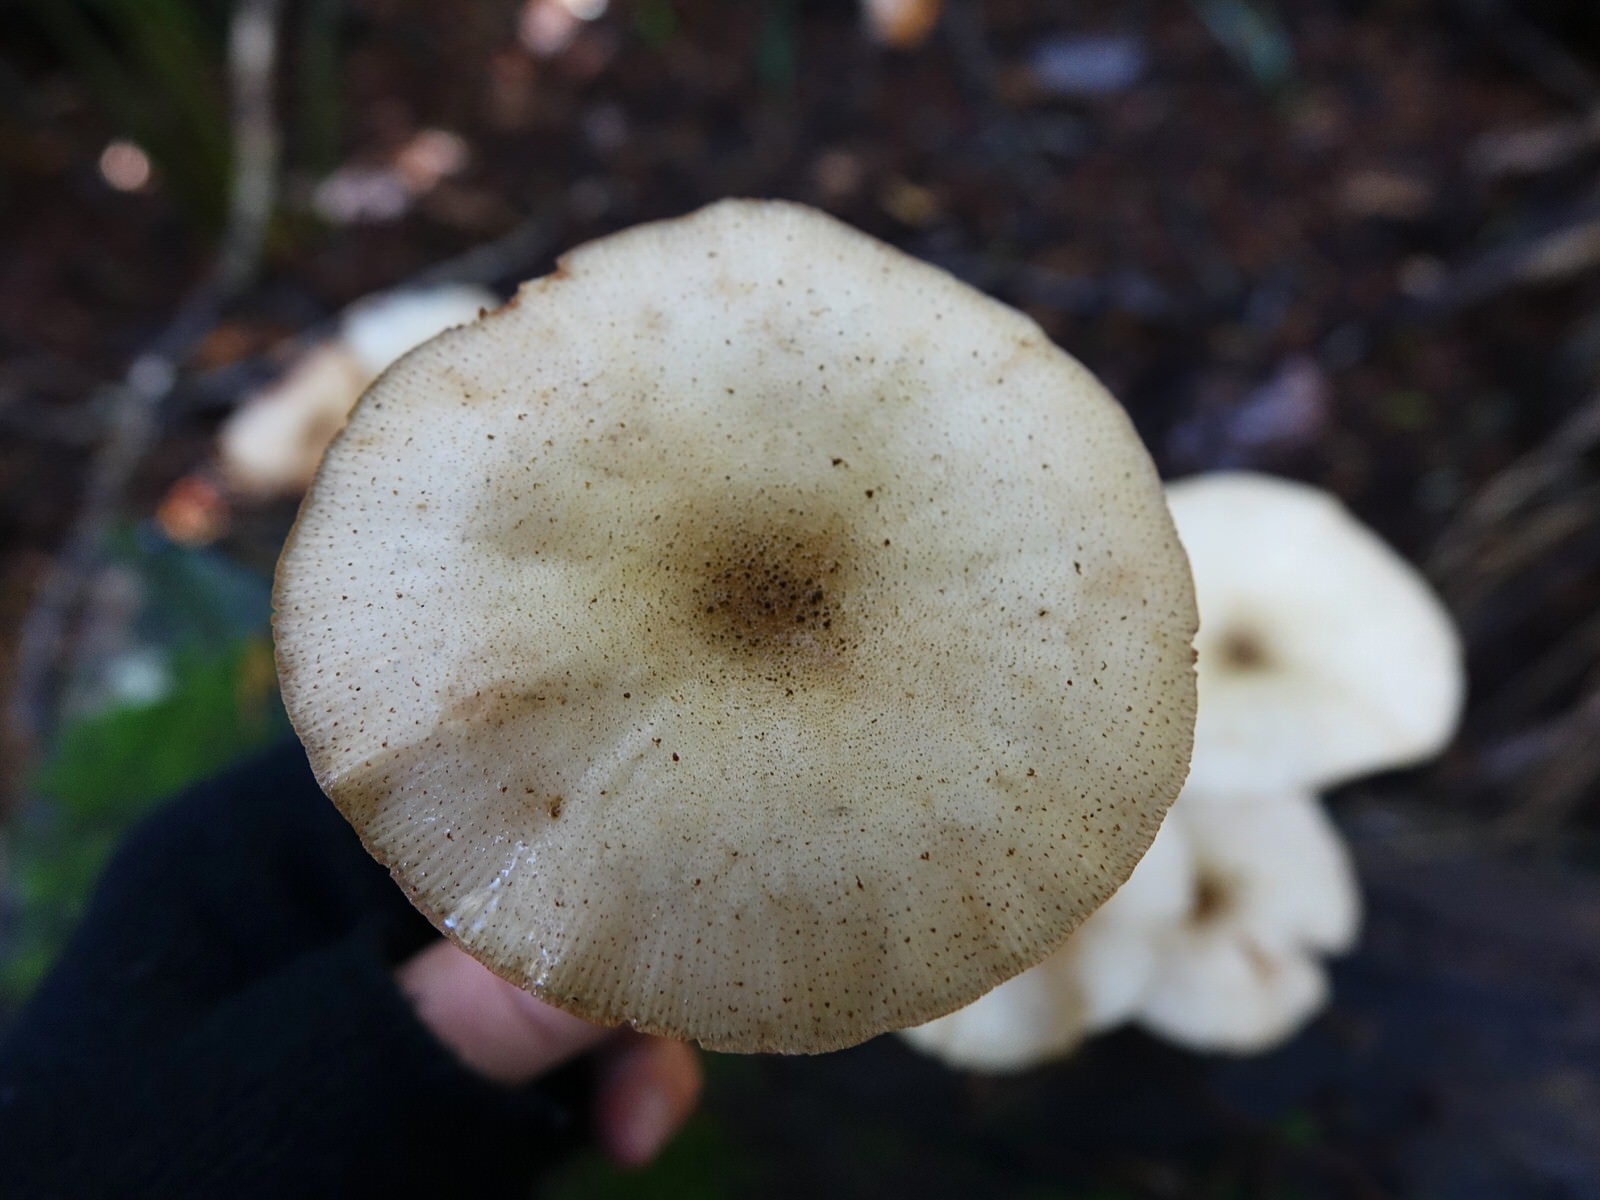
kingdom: Fungi
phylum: Basidiomycota
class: Agaricomycetes
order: Agaricales
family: Physalacriaceae
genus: Armillaria
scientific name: Armillaria limonea
